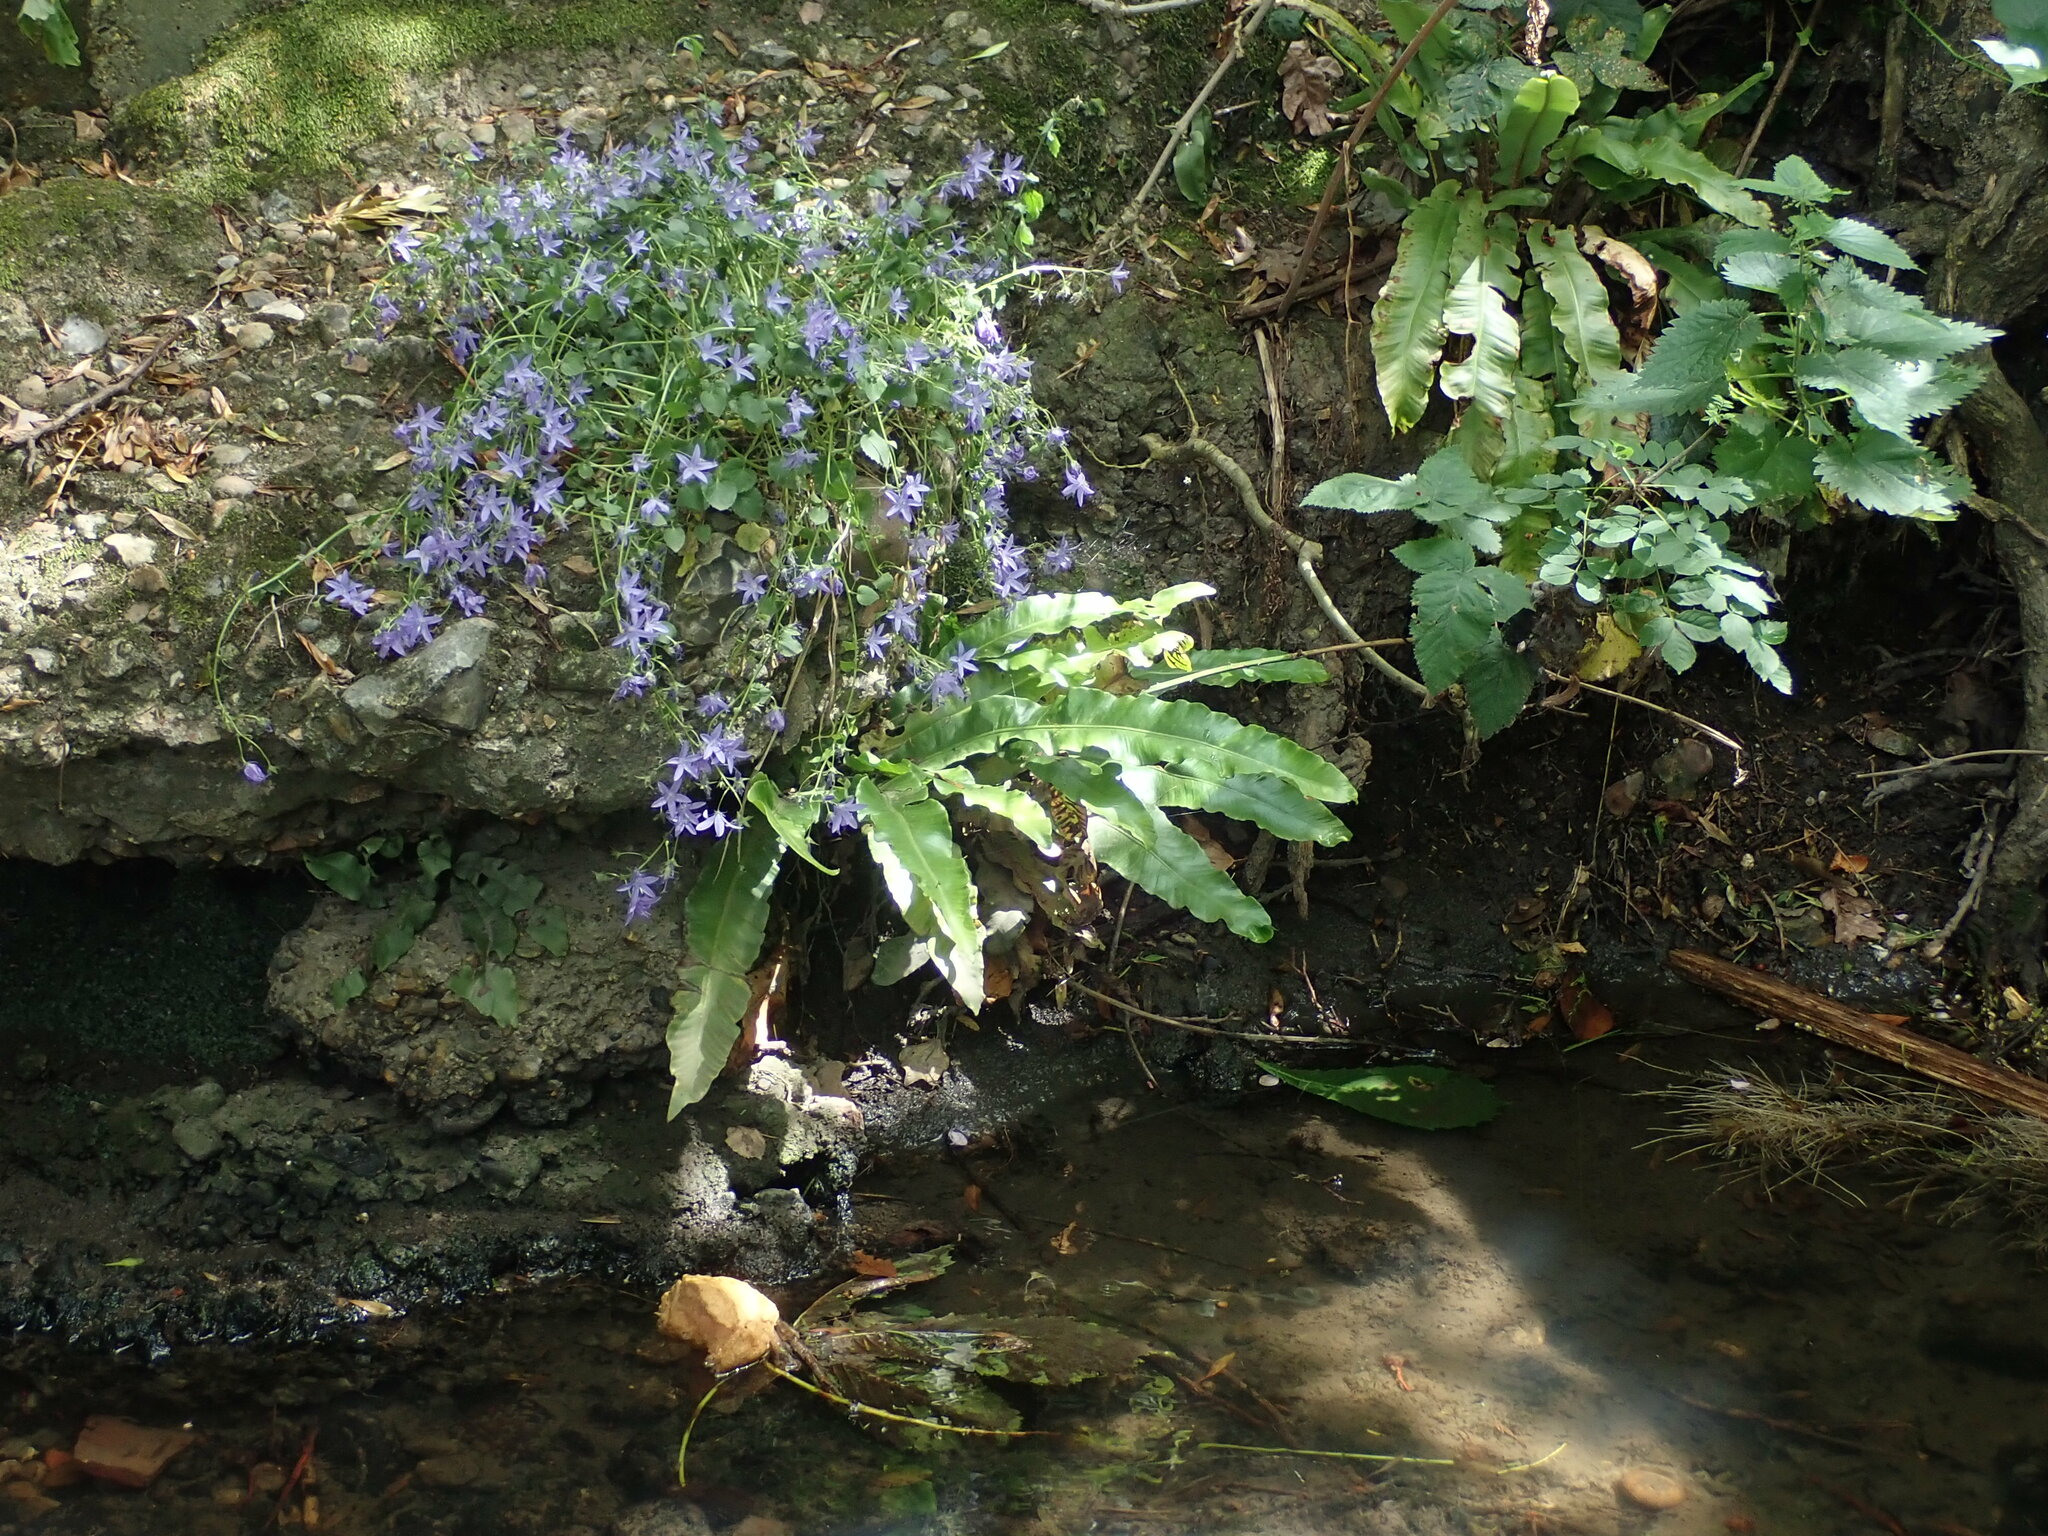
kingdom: Plantae
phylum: Tracheophyta
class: Polypodiopsida
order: Polypodiales
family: Aspleniaceae
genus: Asplenium
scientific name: Asplenium scolopendrium
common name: Hart's-tongue fern
